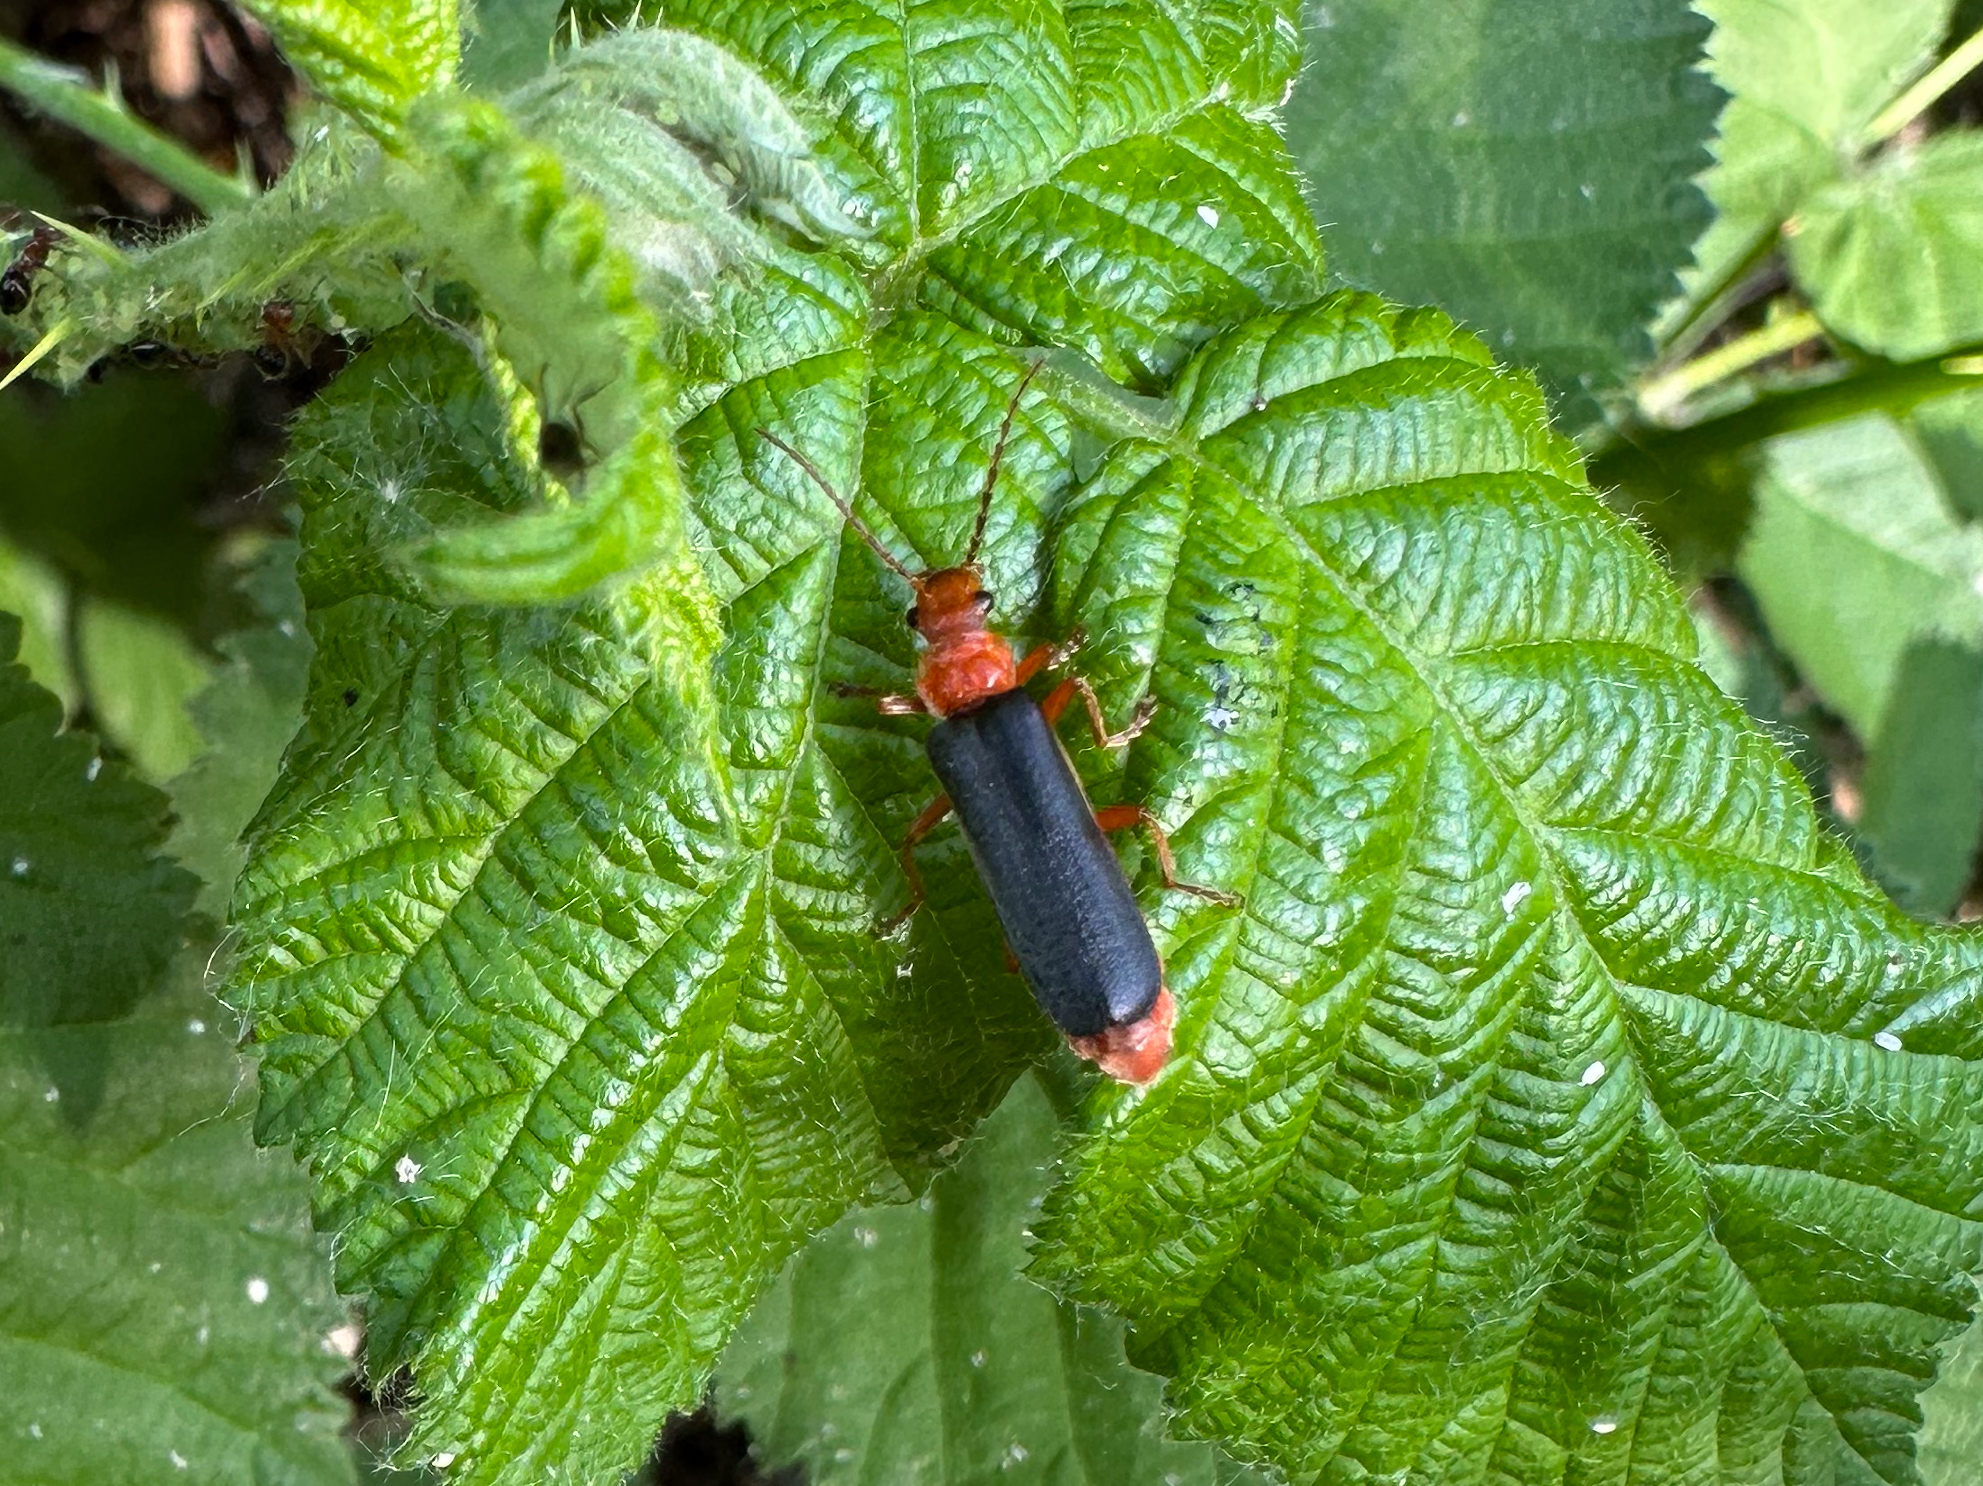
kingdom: Animalia
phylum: Arthropoda
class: Insecta
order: Coleoptera
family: Cantharidae
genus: Podabrus
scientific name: Podabrus pruinosus
